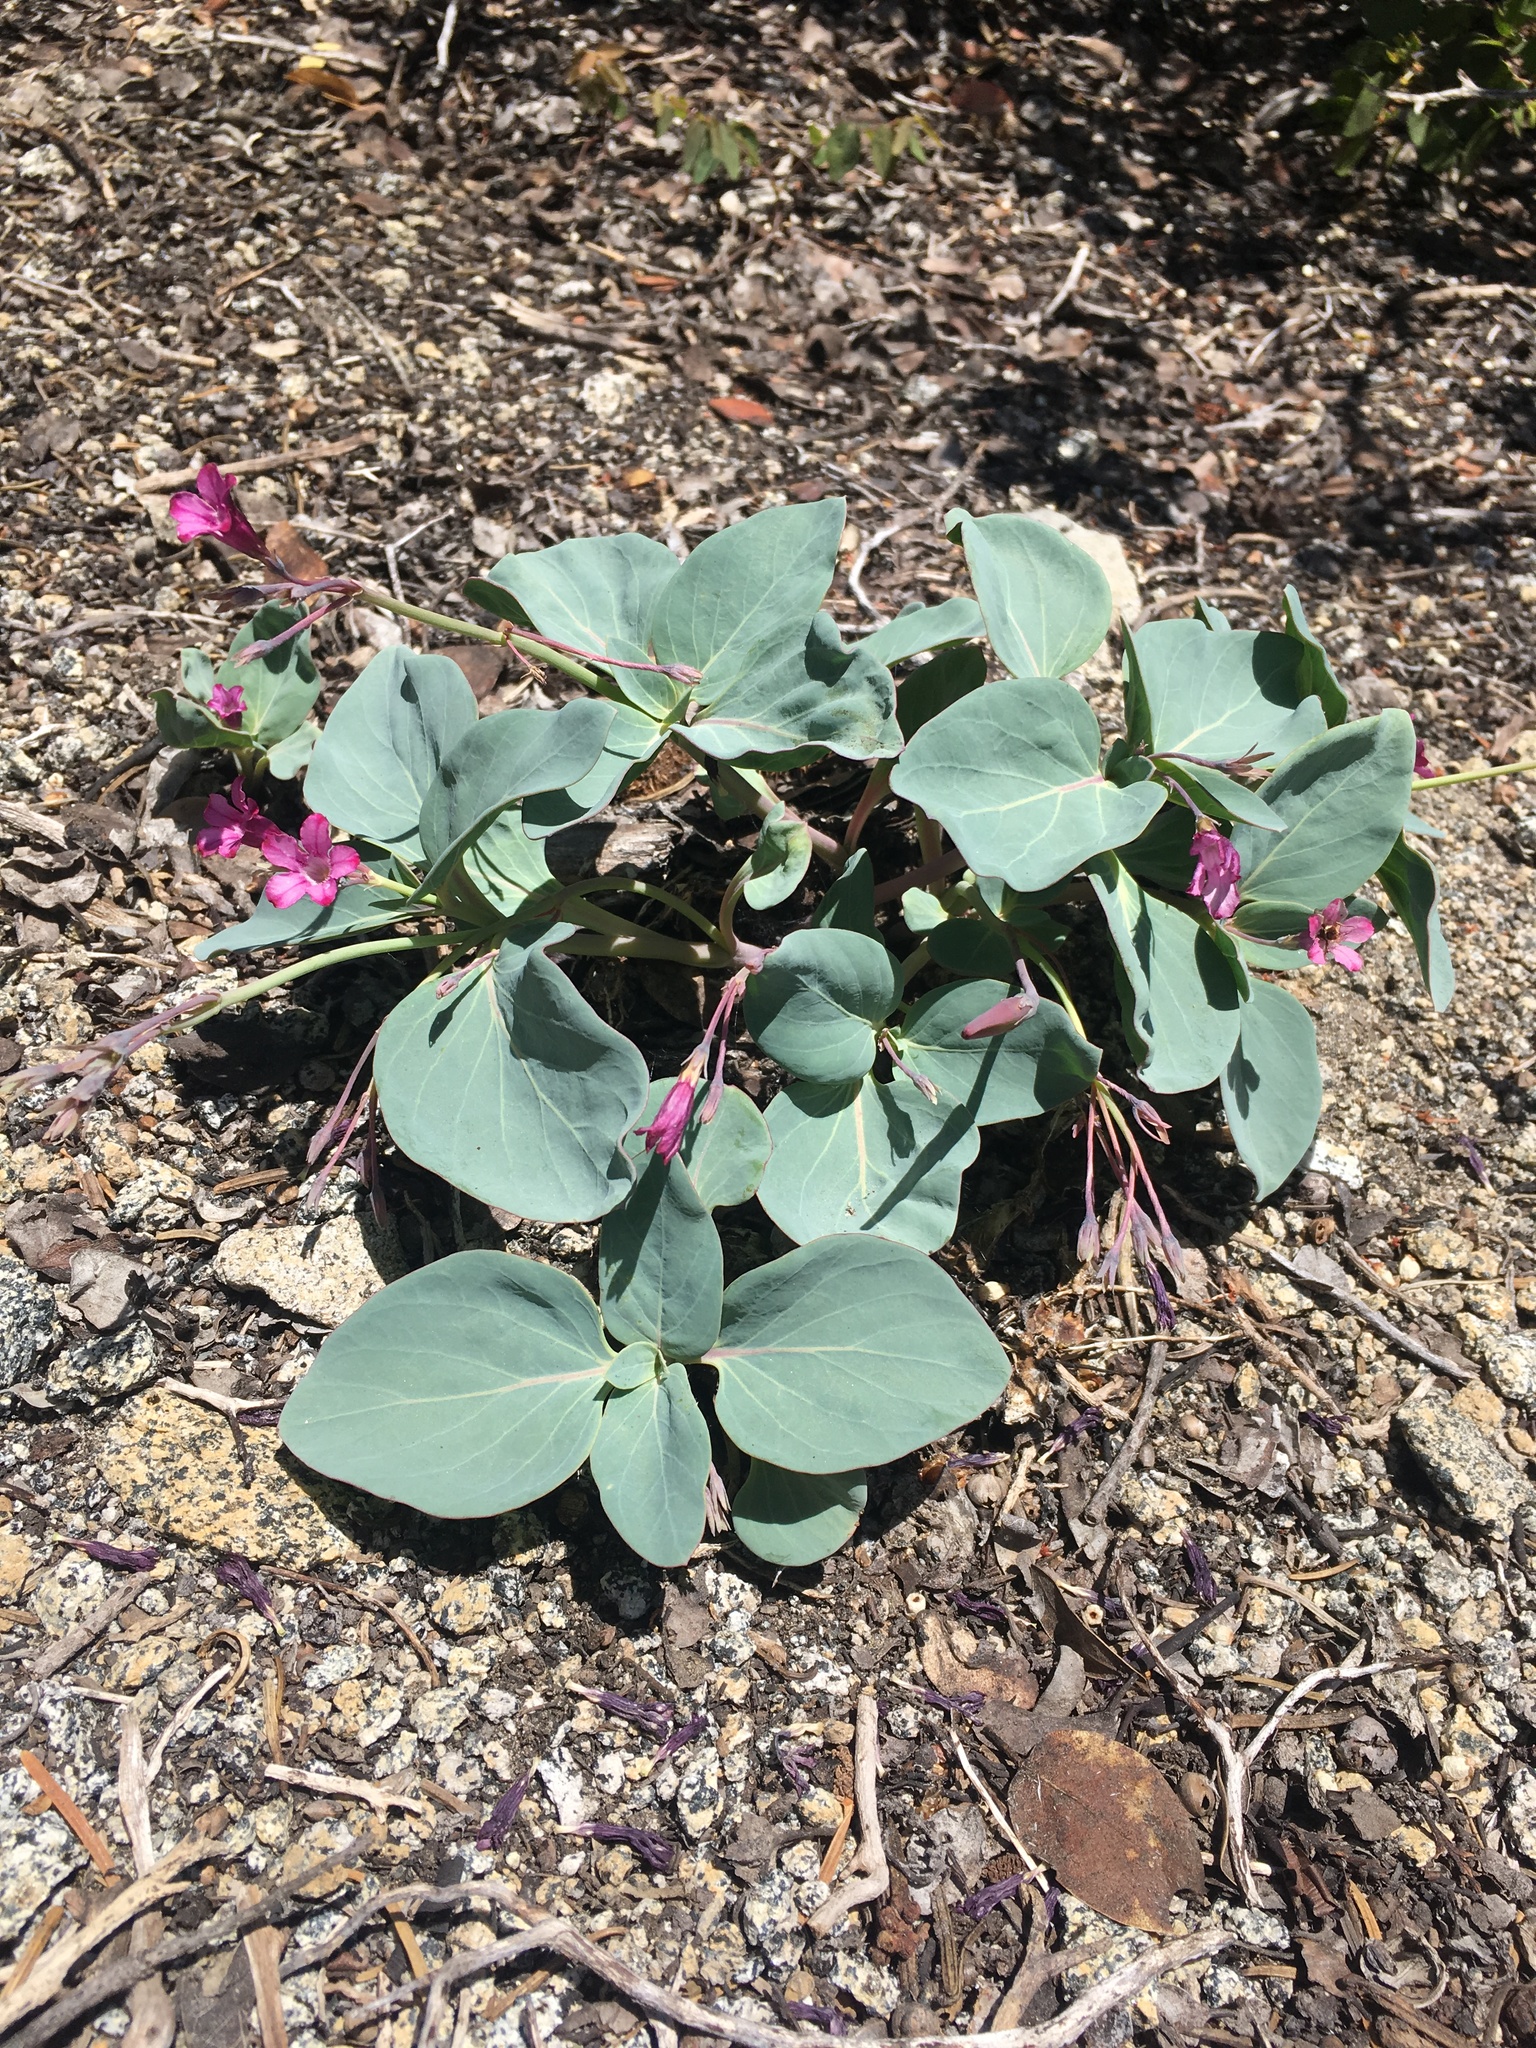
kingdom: Plantae
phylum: Tracheophyta
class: Magnoliopsida
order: Gentianales
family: Apocynaceae
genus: Cycladenia
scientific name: Cycladenia humilis
